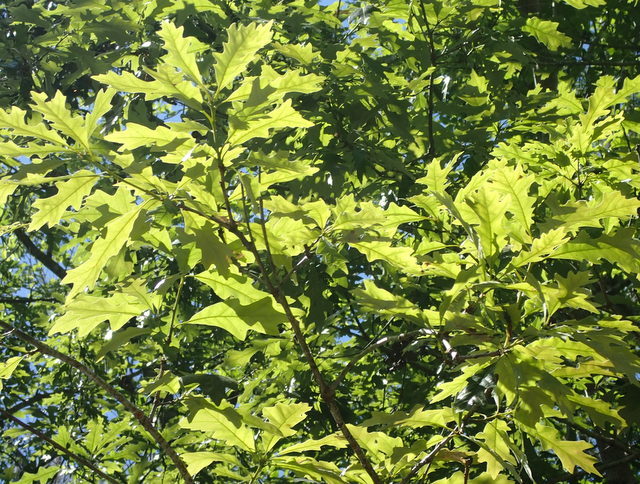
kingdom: Plantae
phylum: Tracheophyta
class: Magnoliopsida
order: Fagales
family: Fagaceae
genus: Quercus
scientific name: Quercus lyrata
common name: Overcup oak
